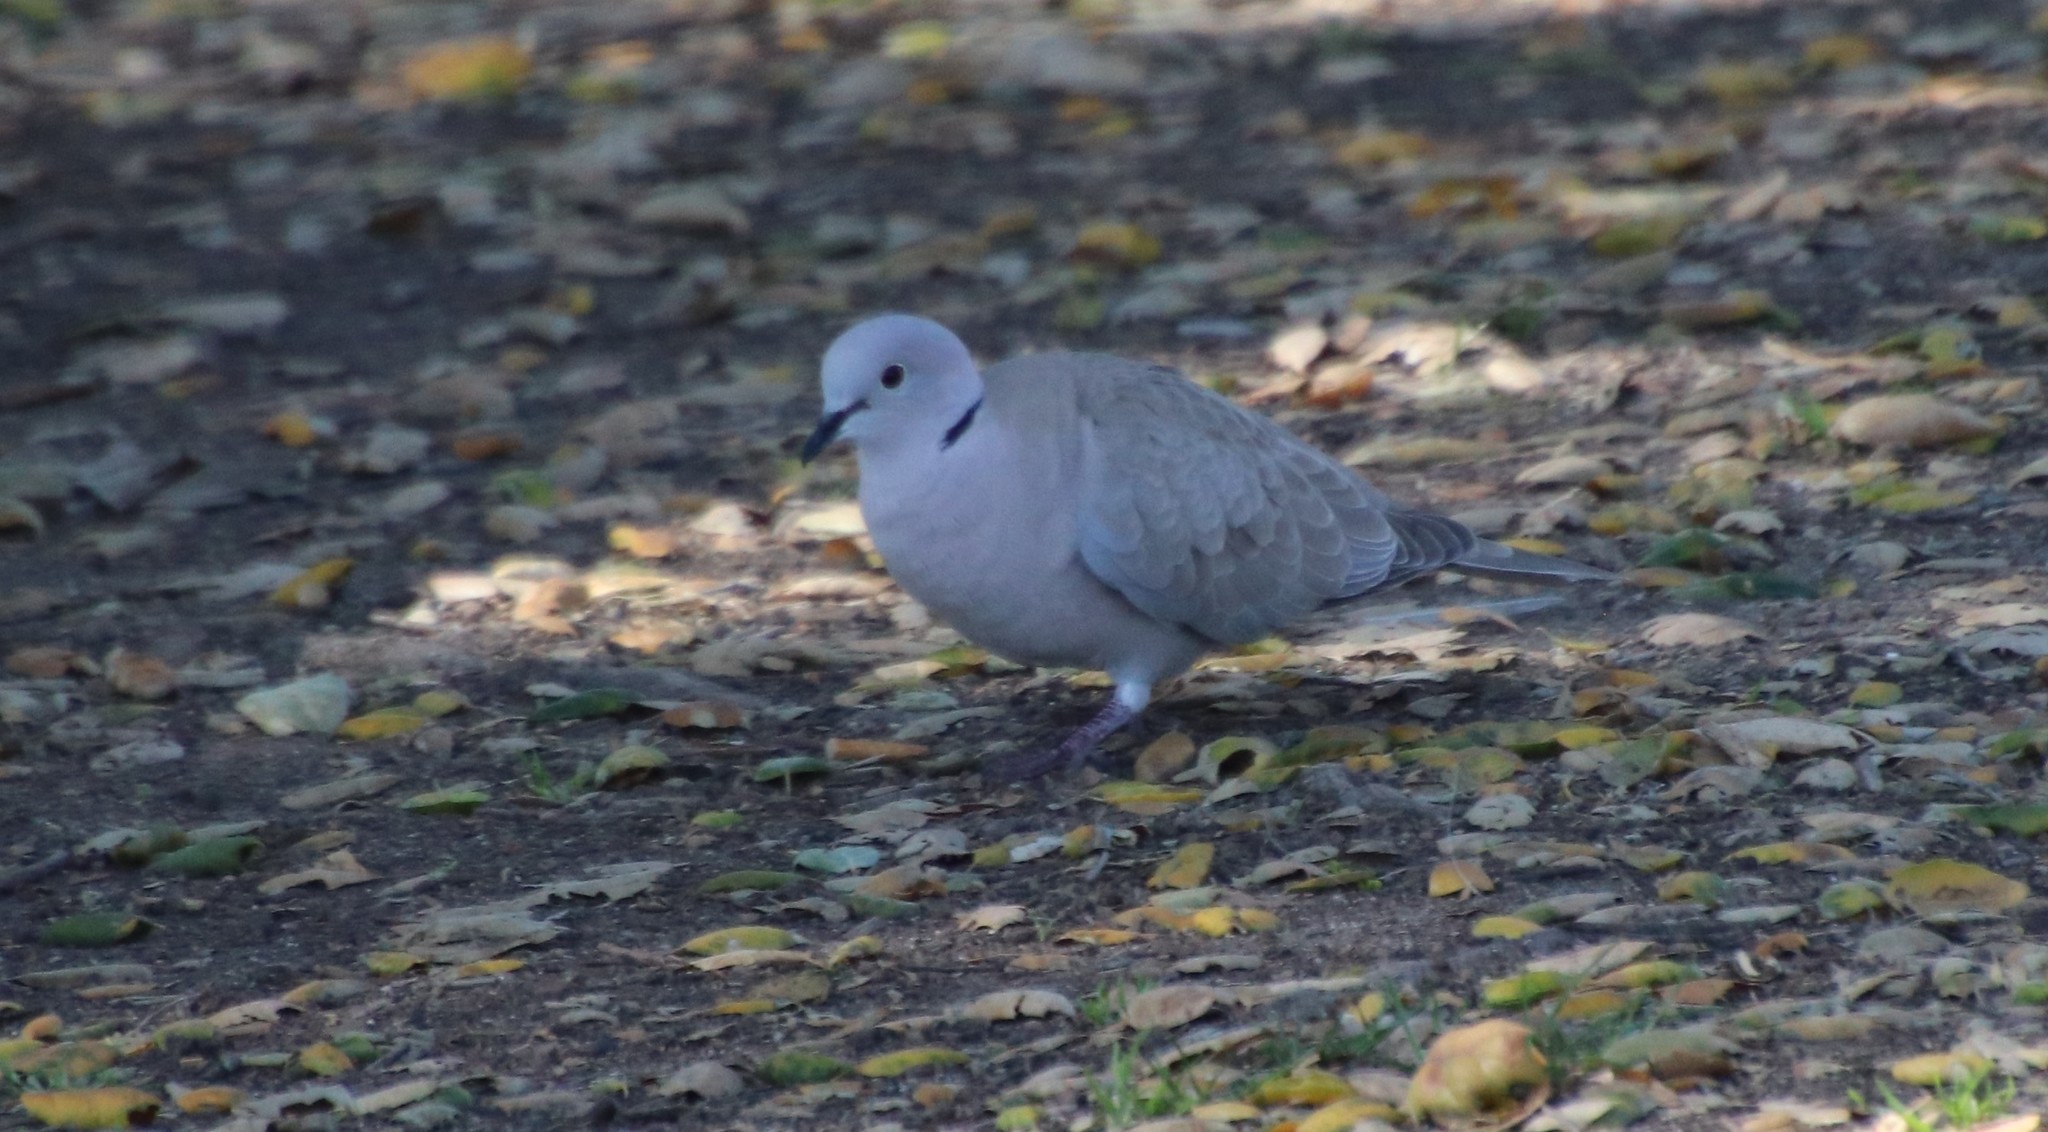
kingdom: Animalia
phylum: Chordata
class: Aves
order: Columbiformes
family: Columbidae
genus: Streptopelia
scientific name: Streptopelia decaocto
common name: Eurasian collared dove
